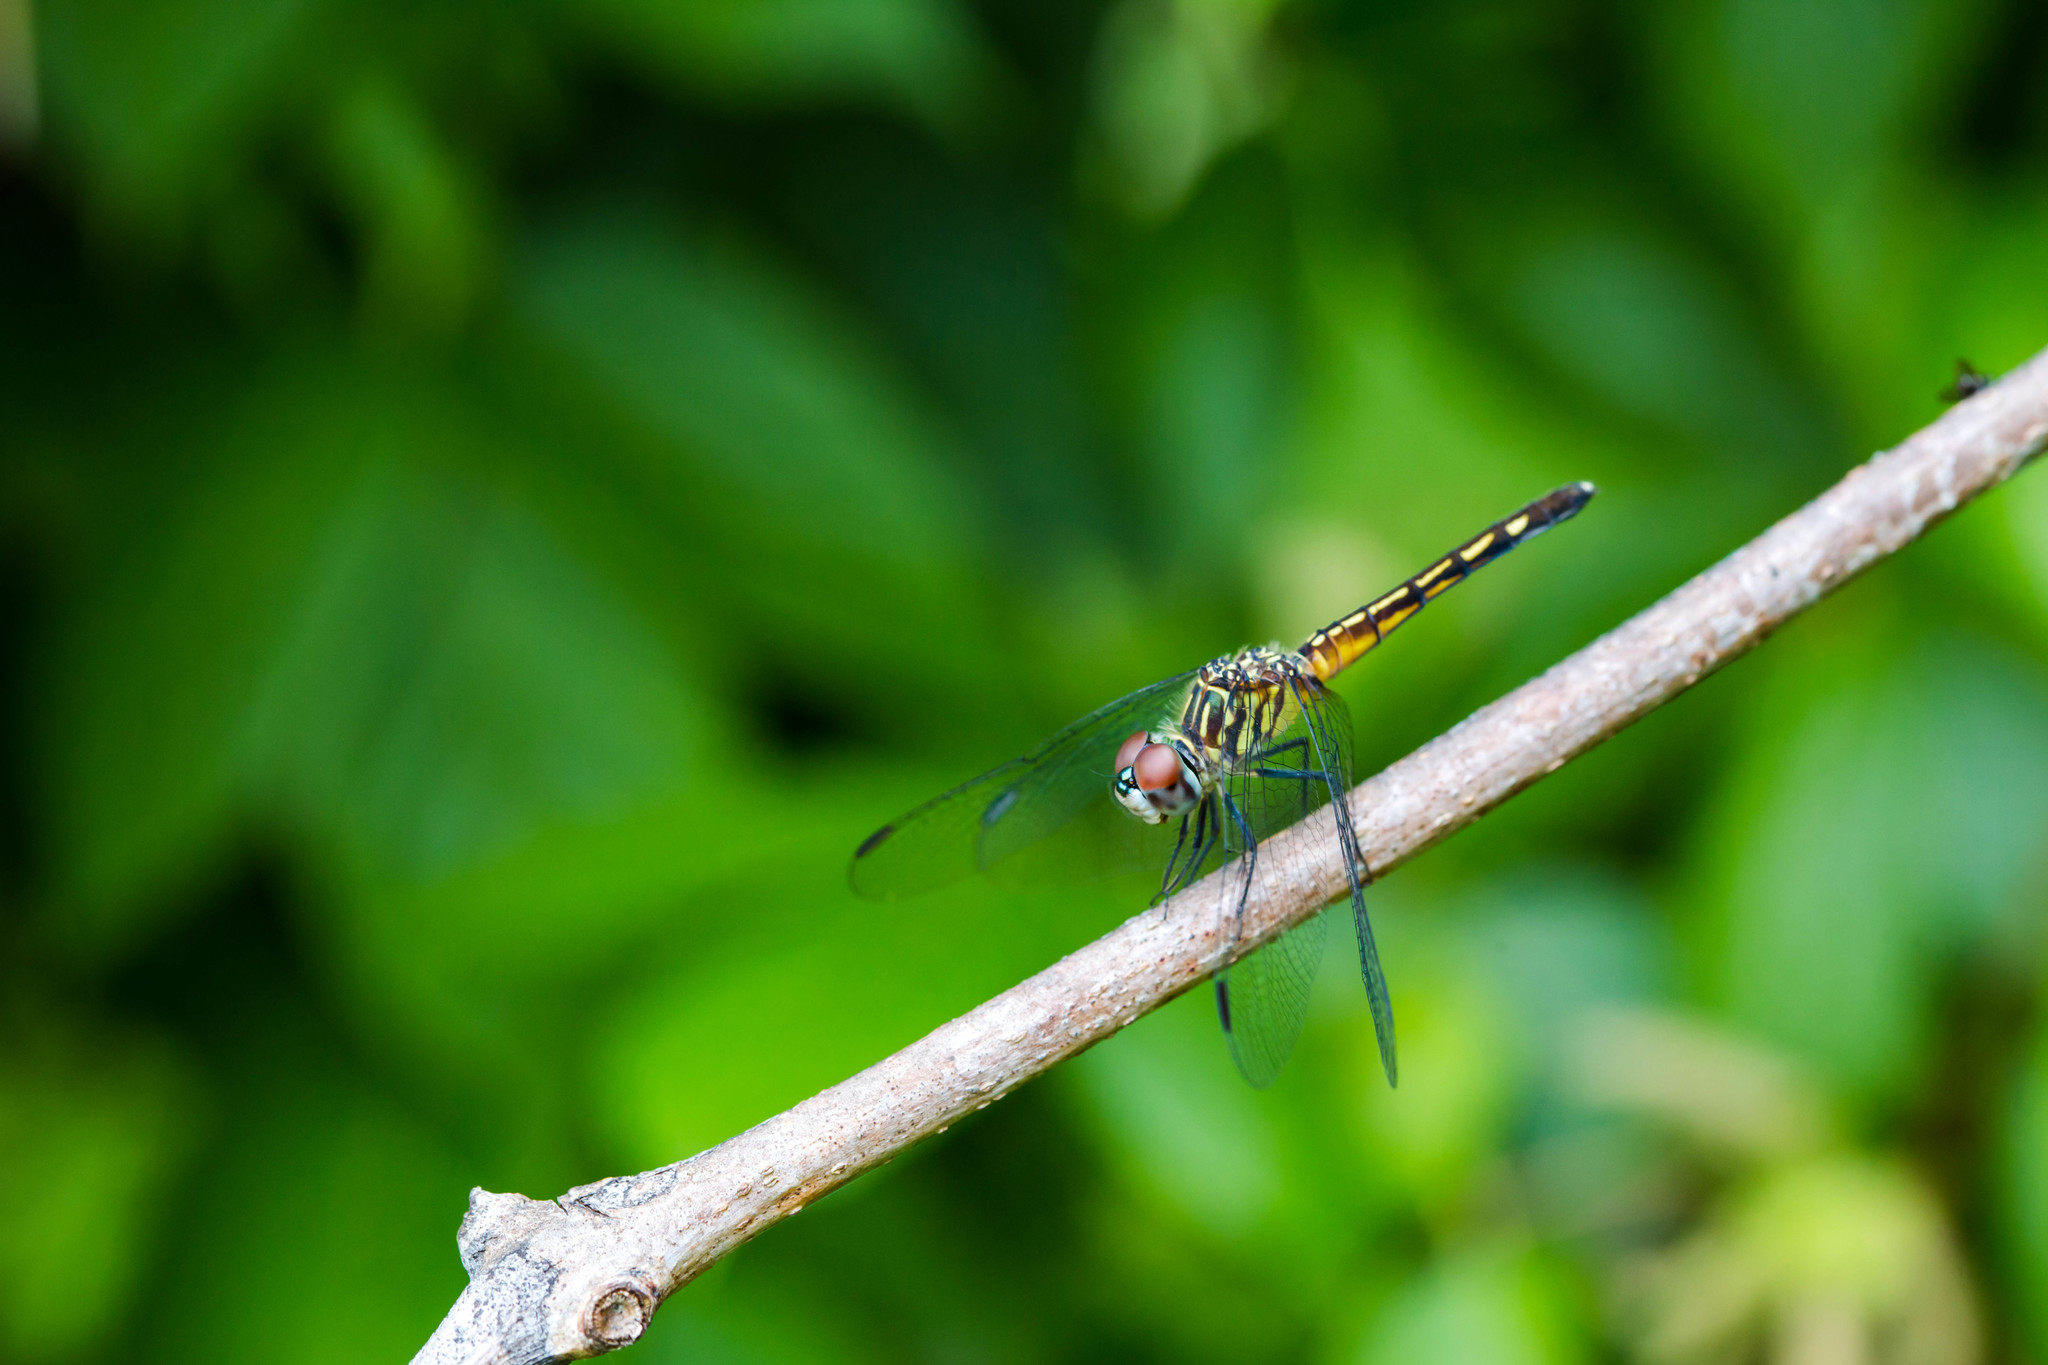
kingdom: Animalia
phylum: Arthropoda
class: Insecta
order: Odonata
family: Libellulidae
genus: Pachydiplax
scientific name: Pachydiplax longipennis
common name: Blue dasher
